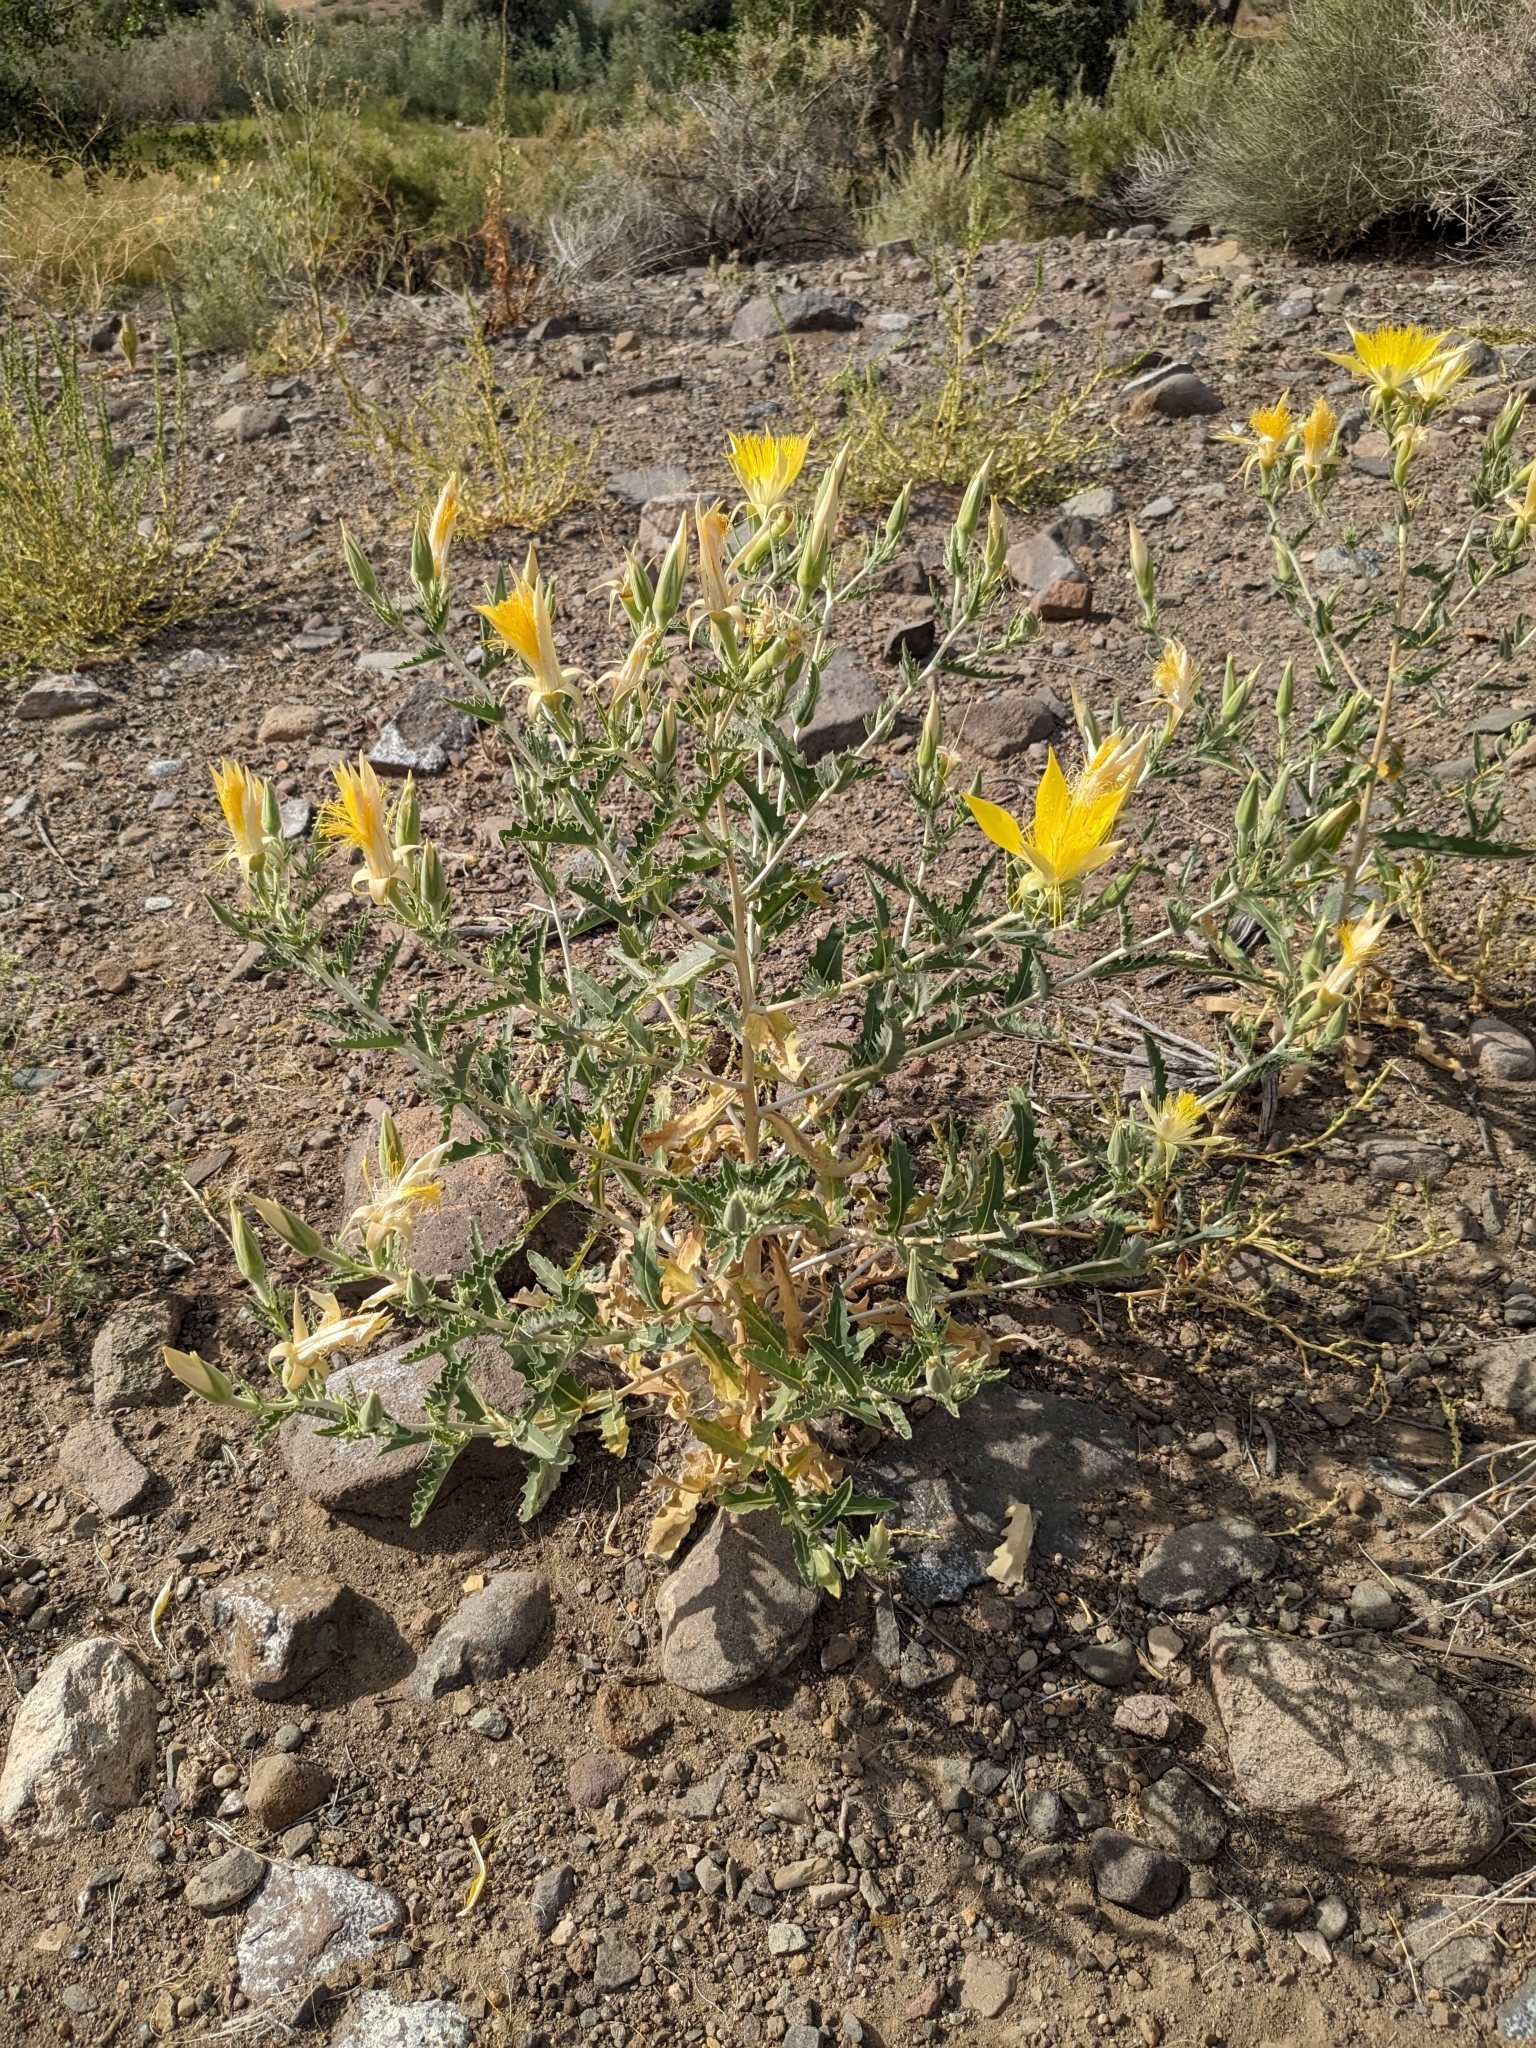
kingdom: Plantae
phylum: Tracheophyta
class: Magnoliopsida
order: Cornales
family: Loasaceae
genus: Mentzelia
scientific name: Mentzelia laevicaulis
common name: Smooth-stem blazingstar
